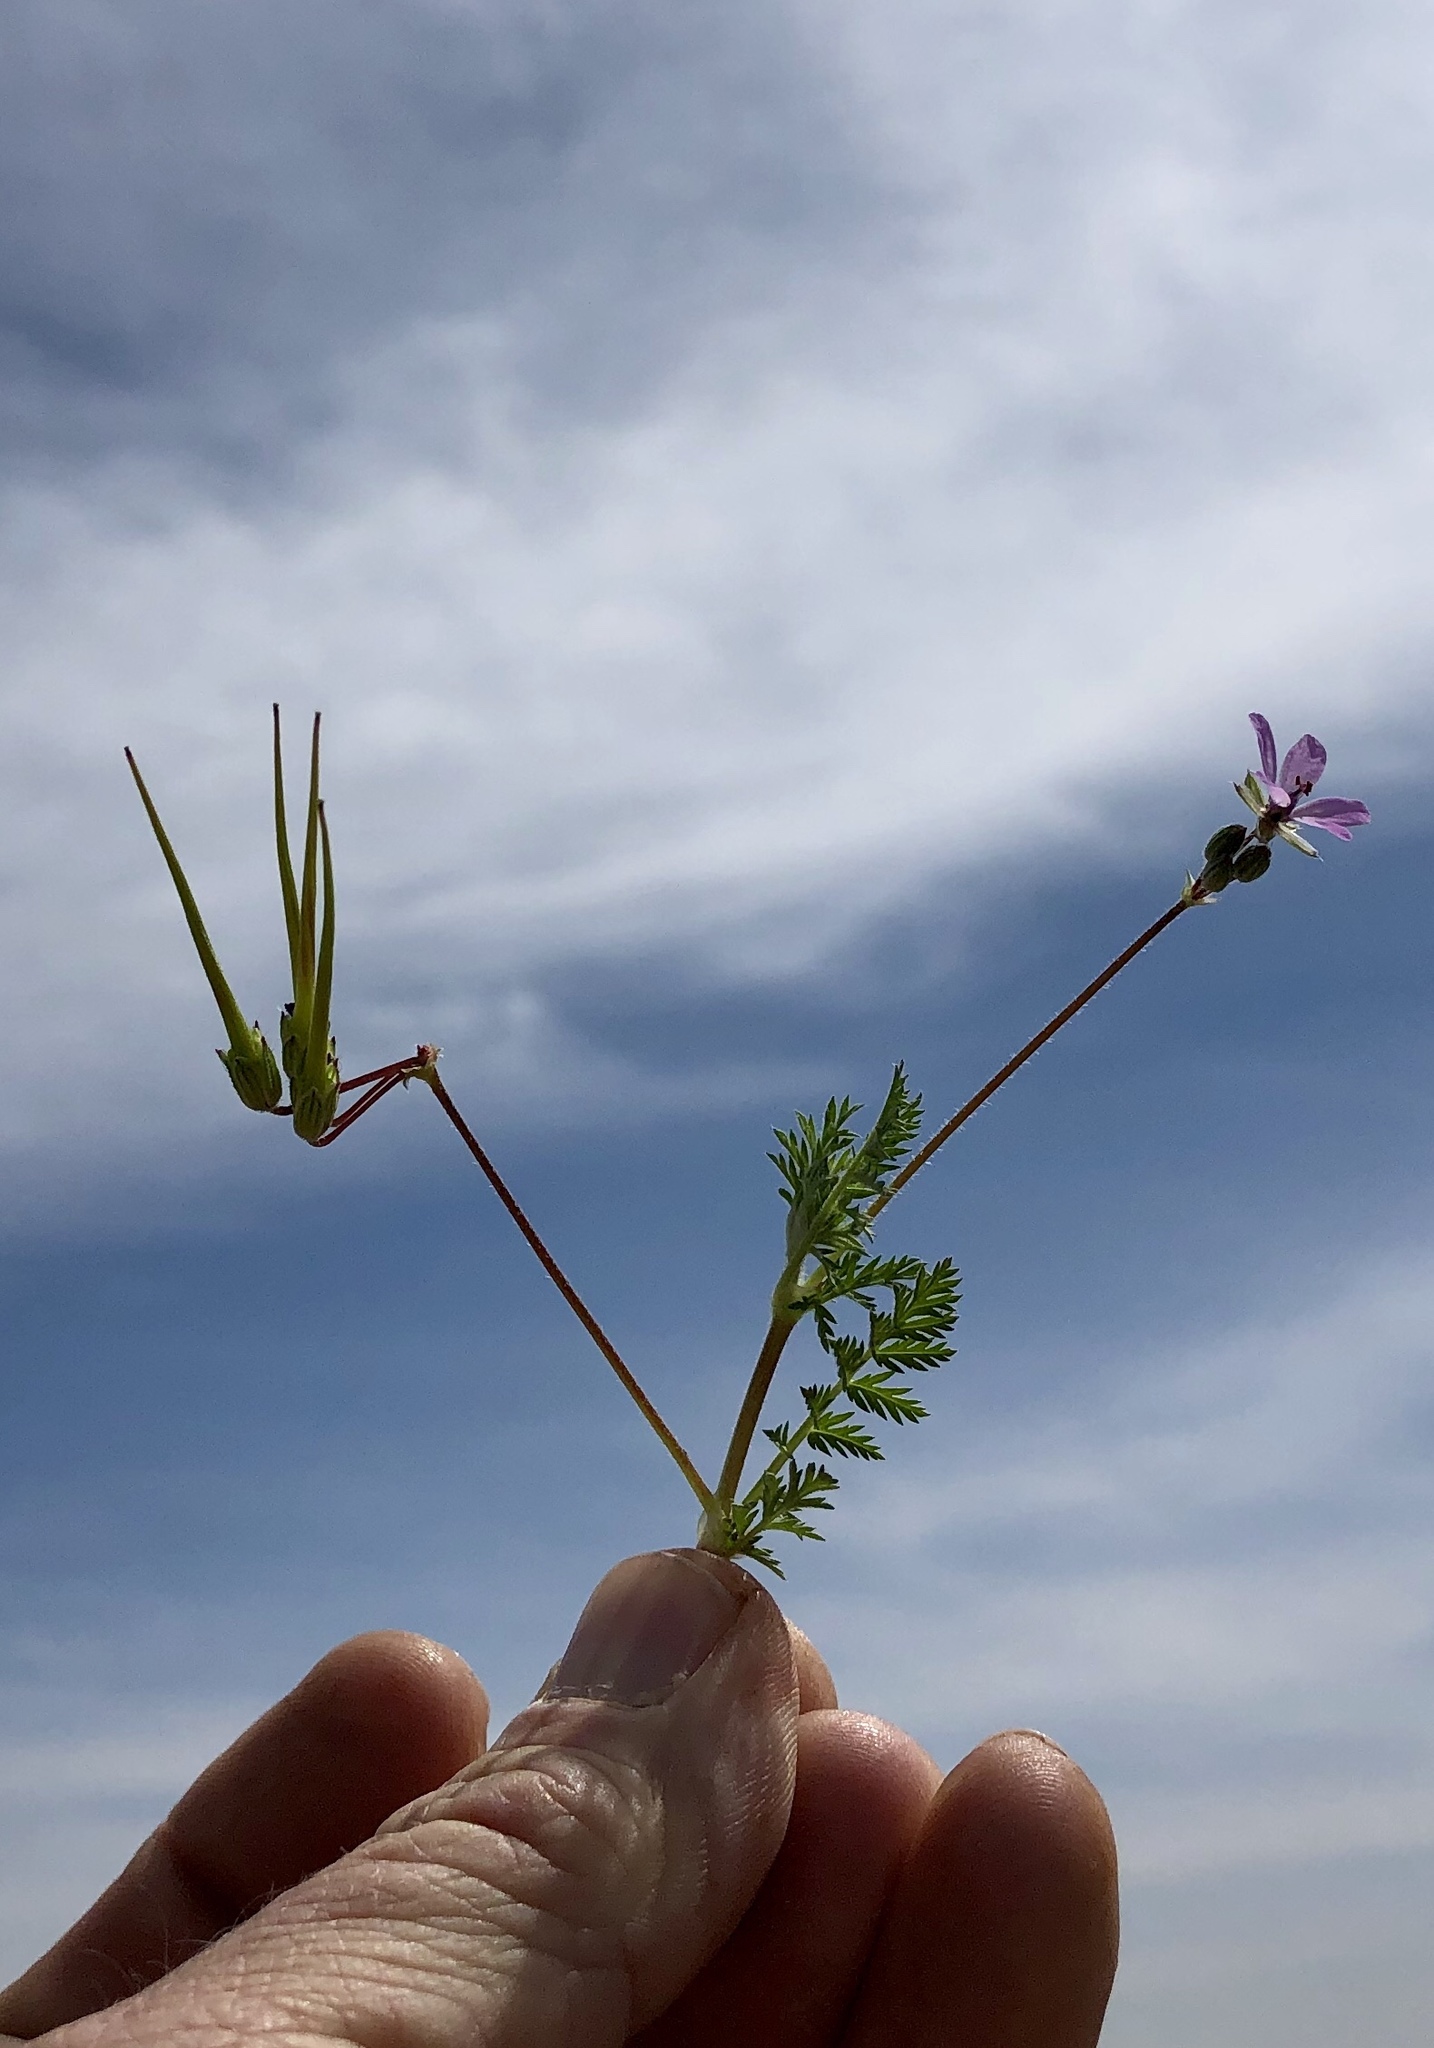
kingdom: Plantae
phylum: Tracheophyta
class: Magnoliopsida
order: Geraniales
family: Geraniaceae
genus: Erodium
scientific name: Erodium cicutarium
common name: Common stork's-bill
